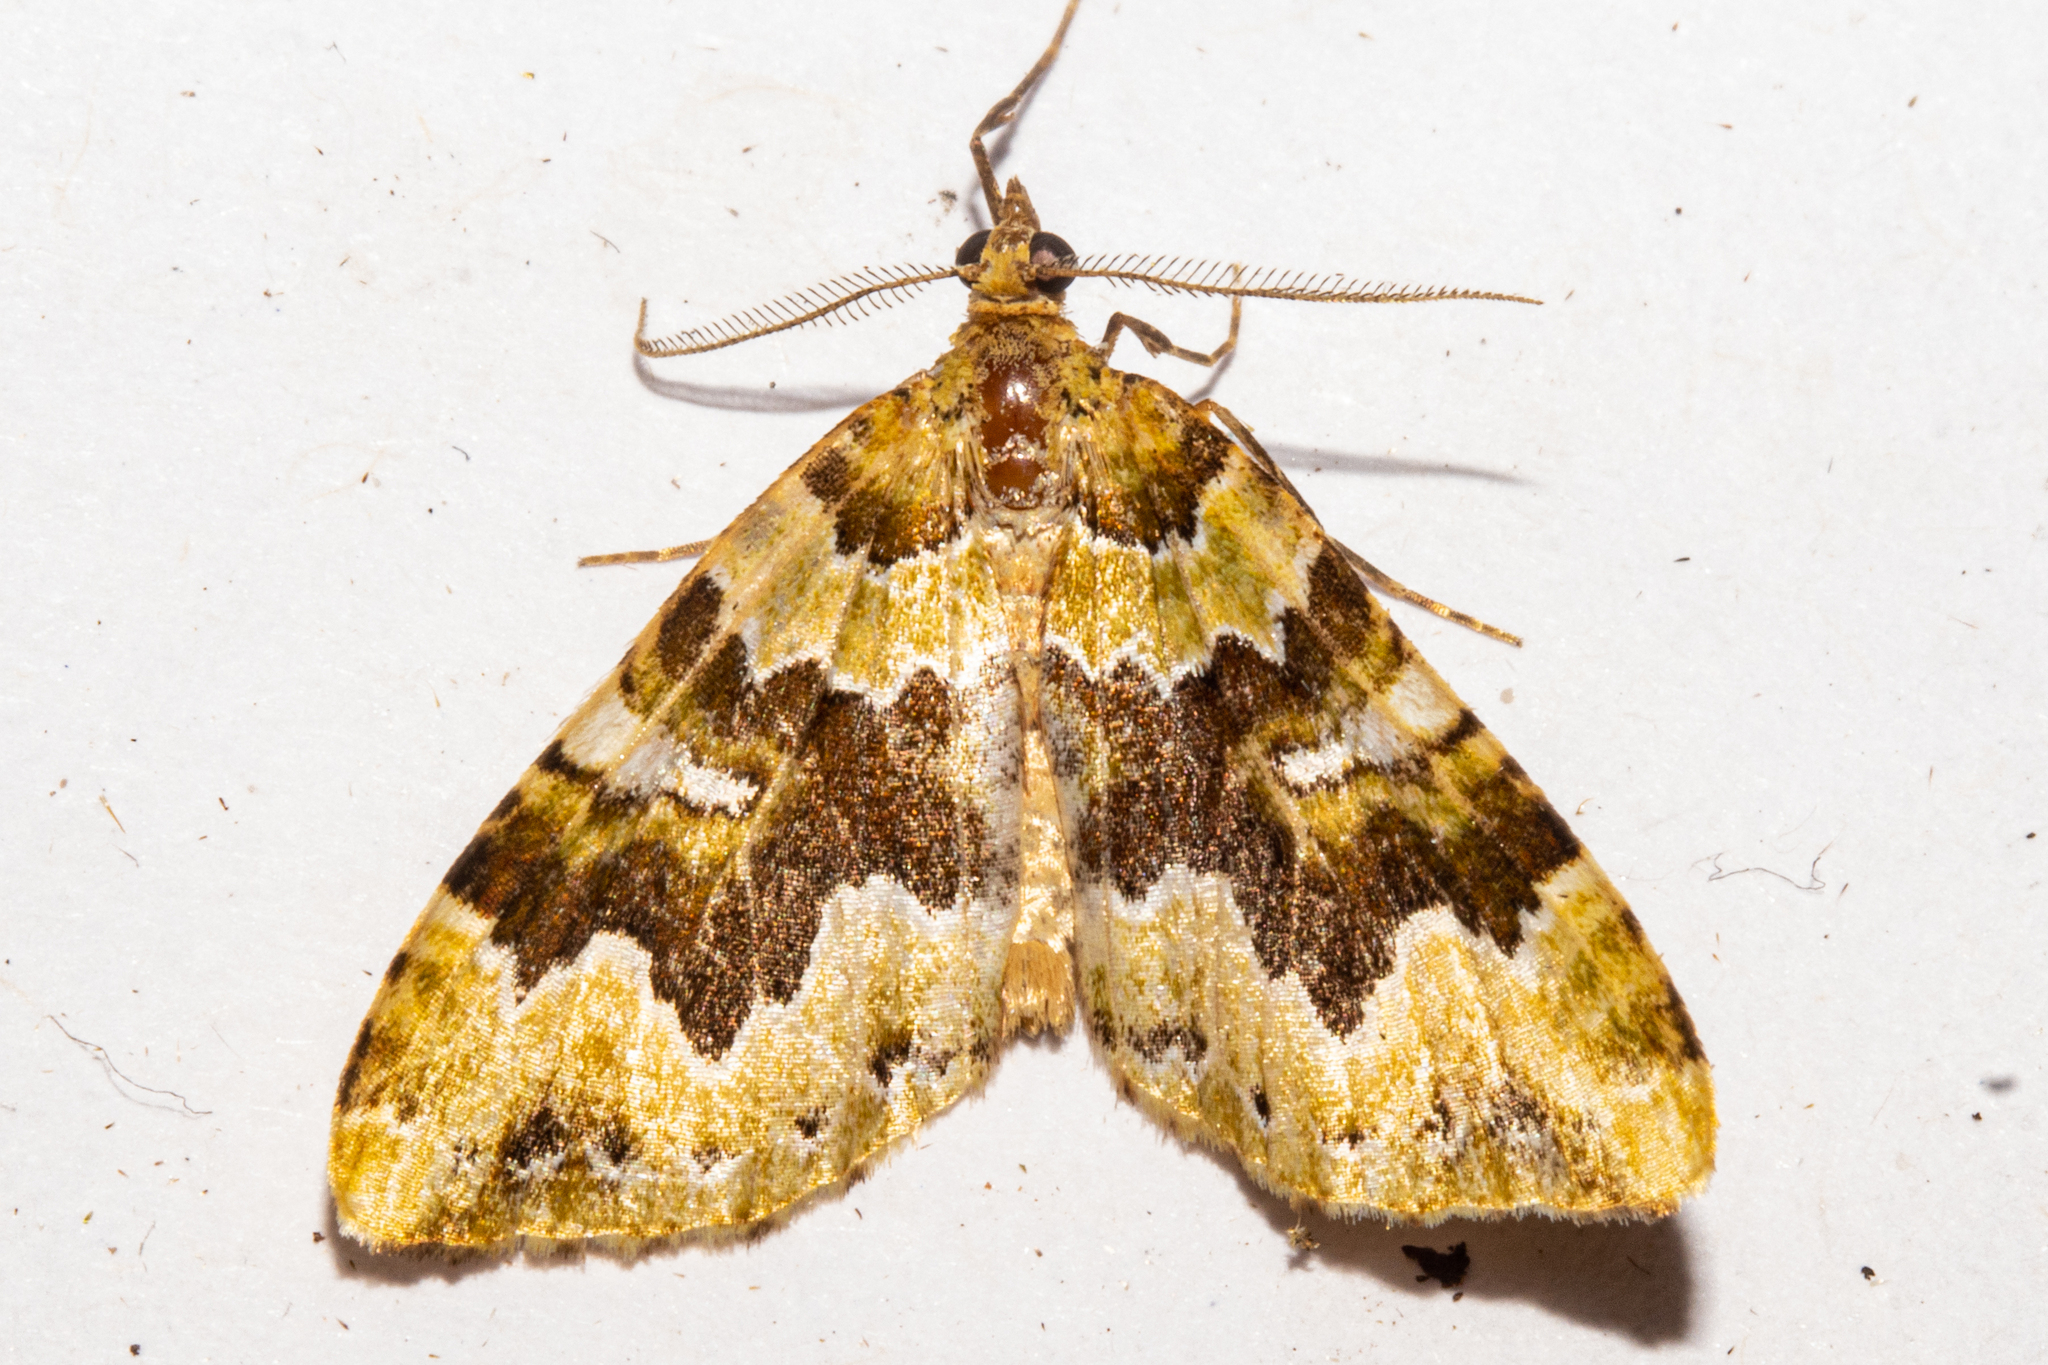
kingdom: Animalia
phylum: Arthropoda
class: Insecta
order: Lepidoptera
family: Geometridae
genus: Asaphodes
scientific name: Asaphodes philpotti
